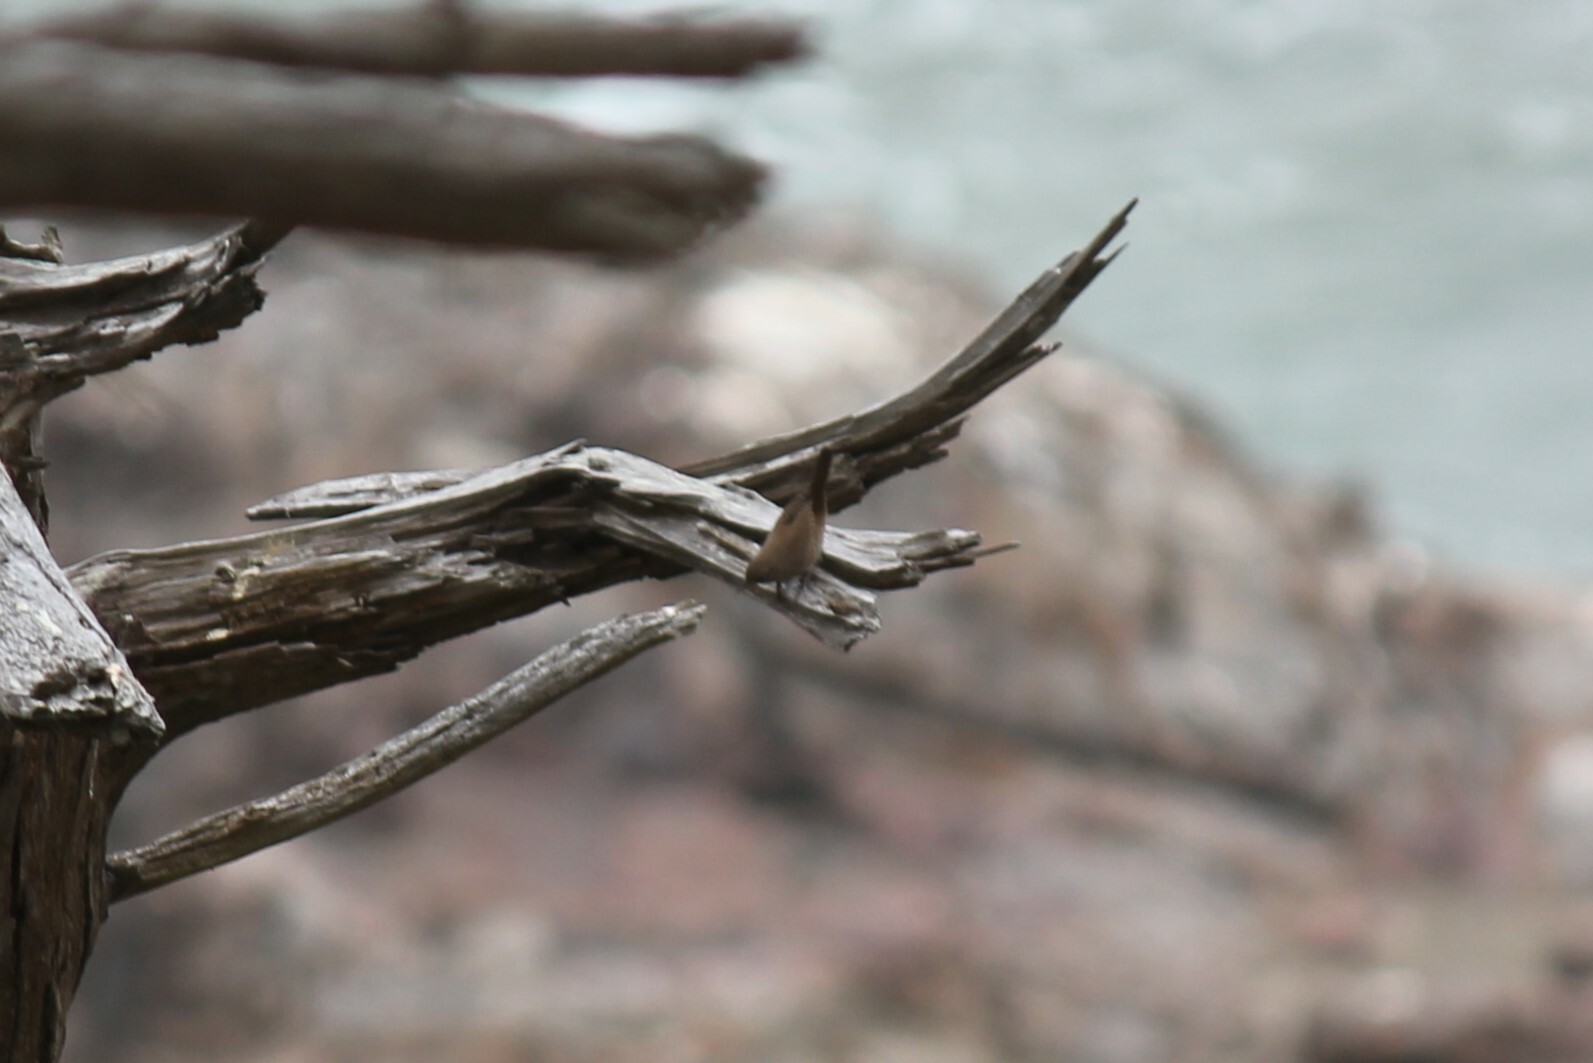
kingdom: Animalia
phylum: Chordata
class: Aves
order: Passeriformes
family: Troglodytidae
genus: Troglodytes
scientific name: Troglodytes aedon
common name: House wren
